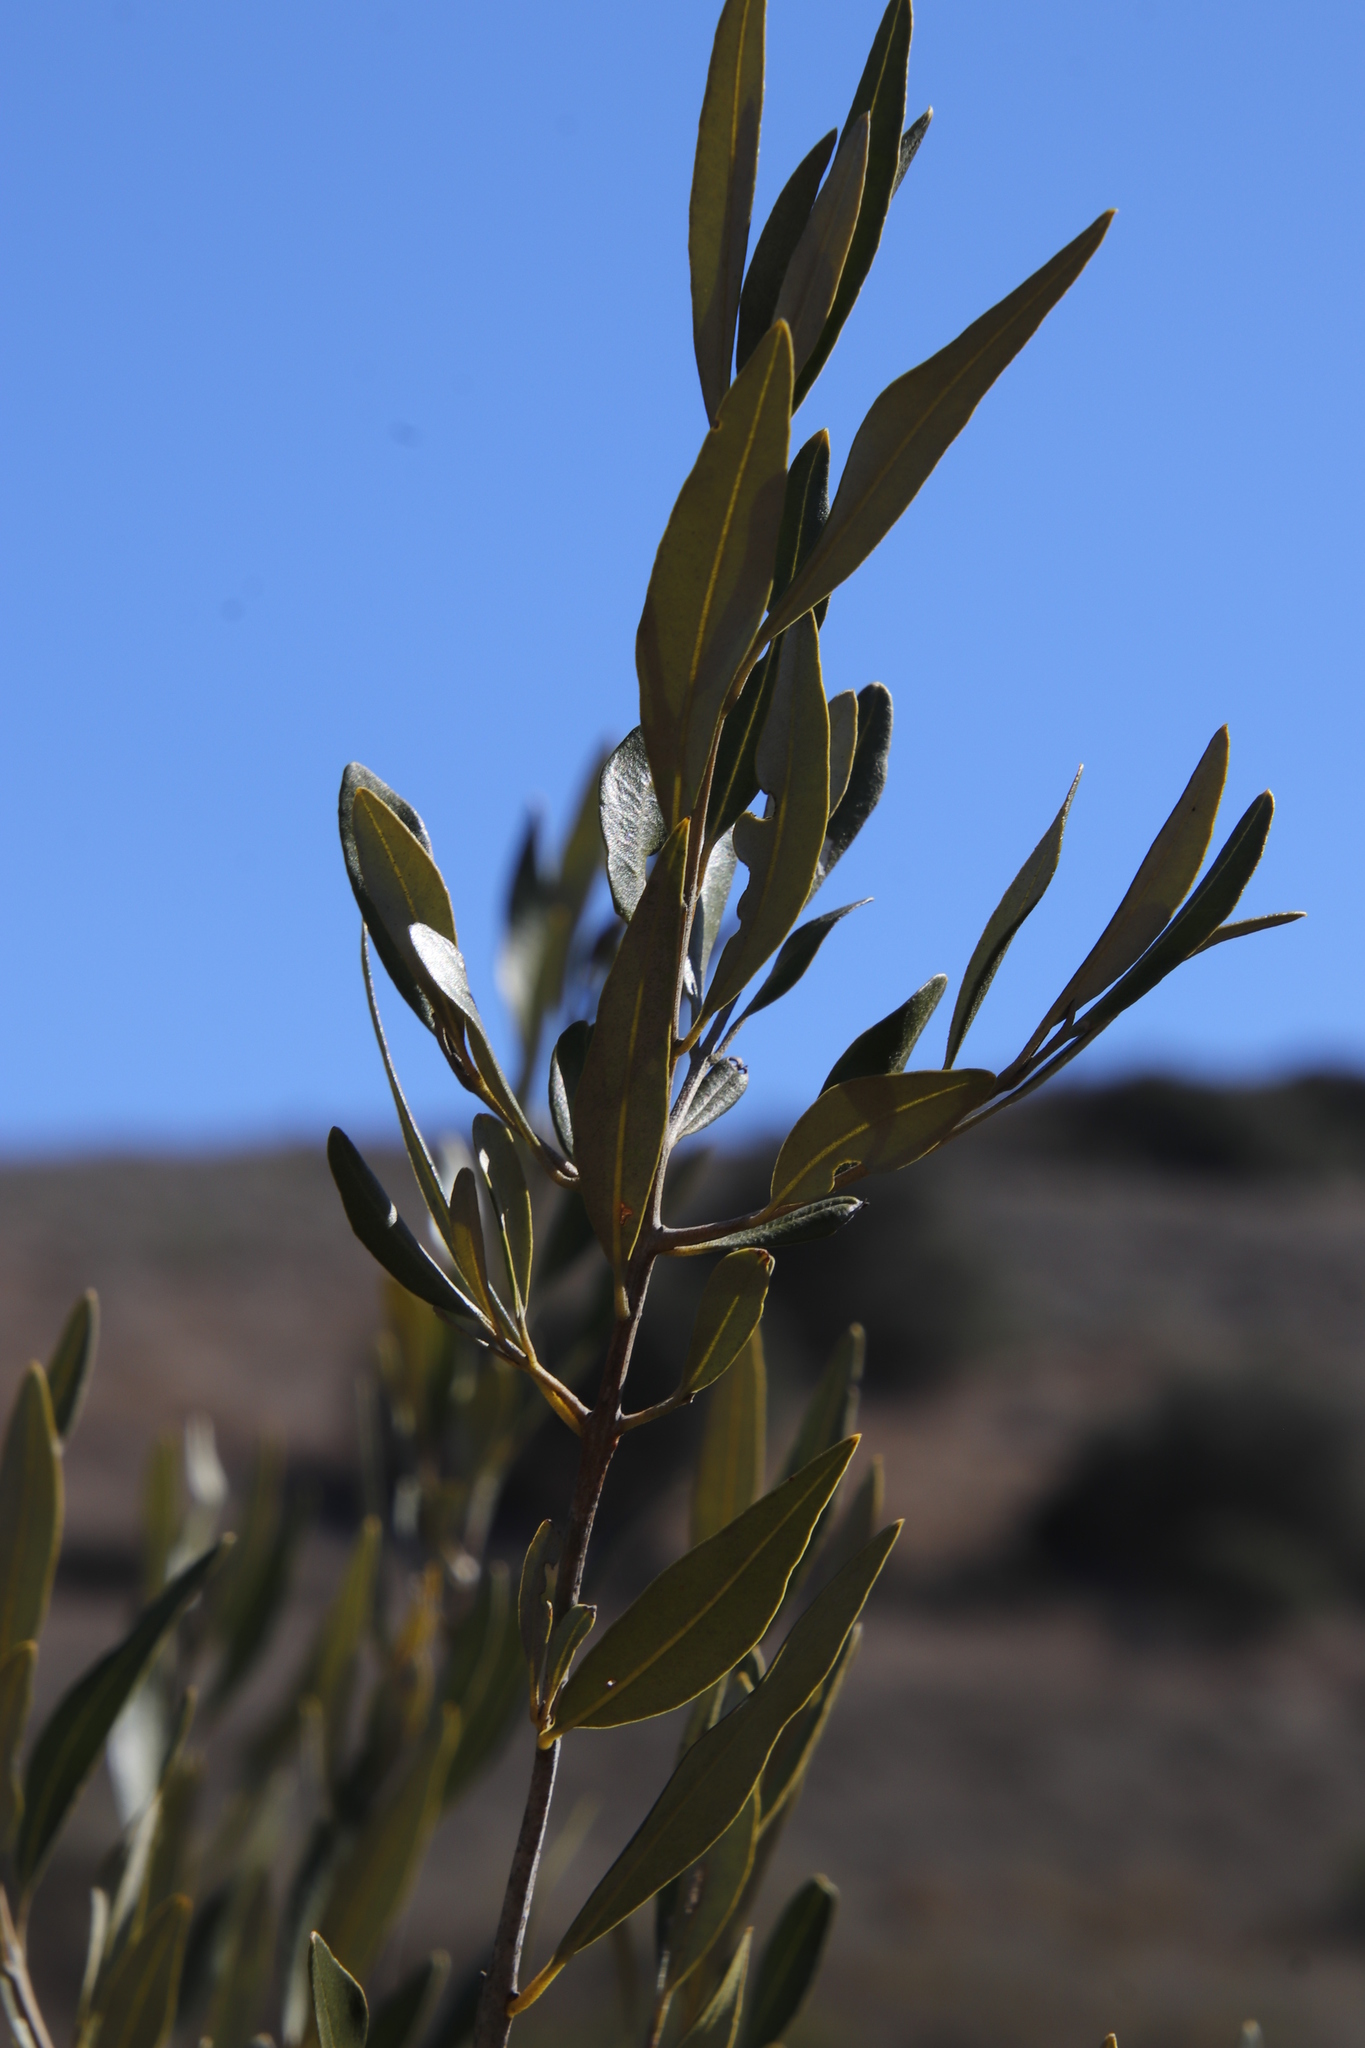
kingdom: Plantae
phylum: Tracheophyta
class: Magnoliopsida
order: Lamiales
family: Oleaceae
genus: Olea
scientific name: Olea europaea
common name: Olive
